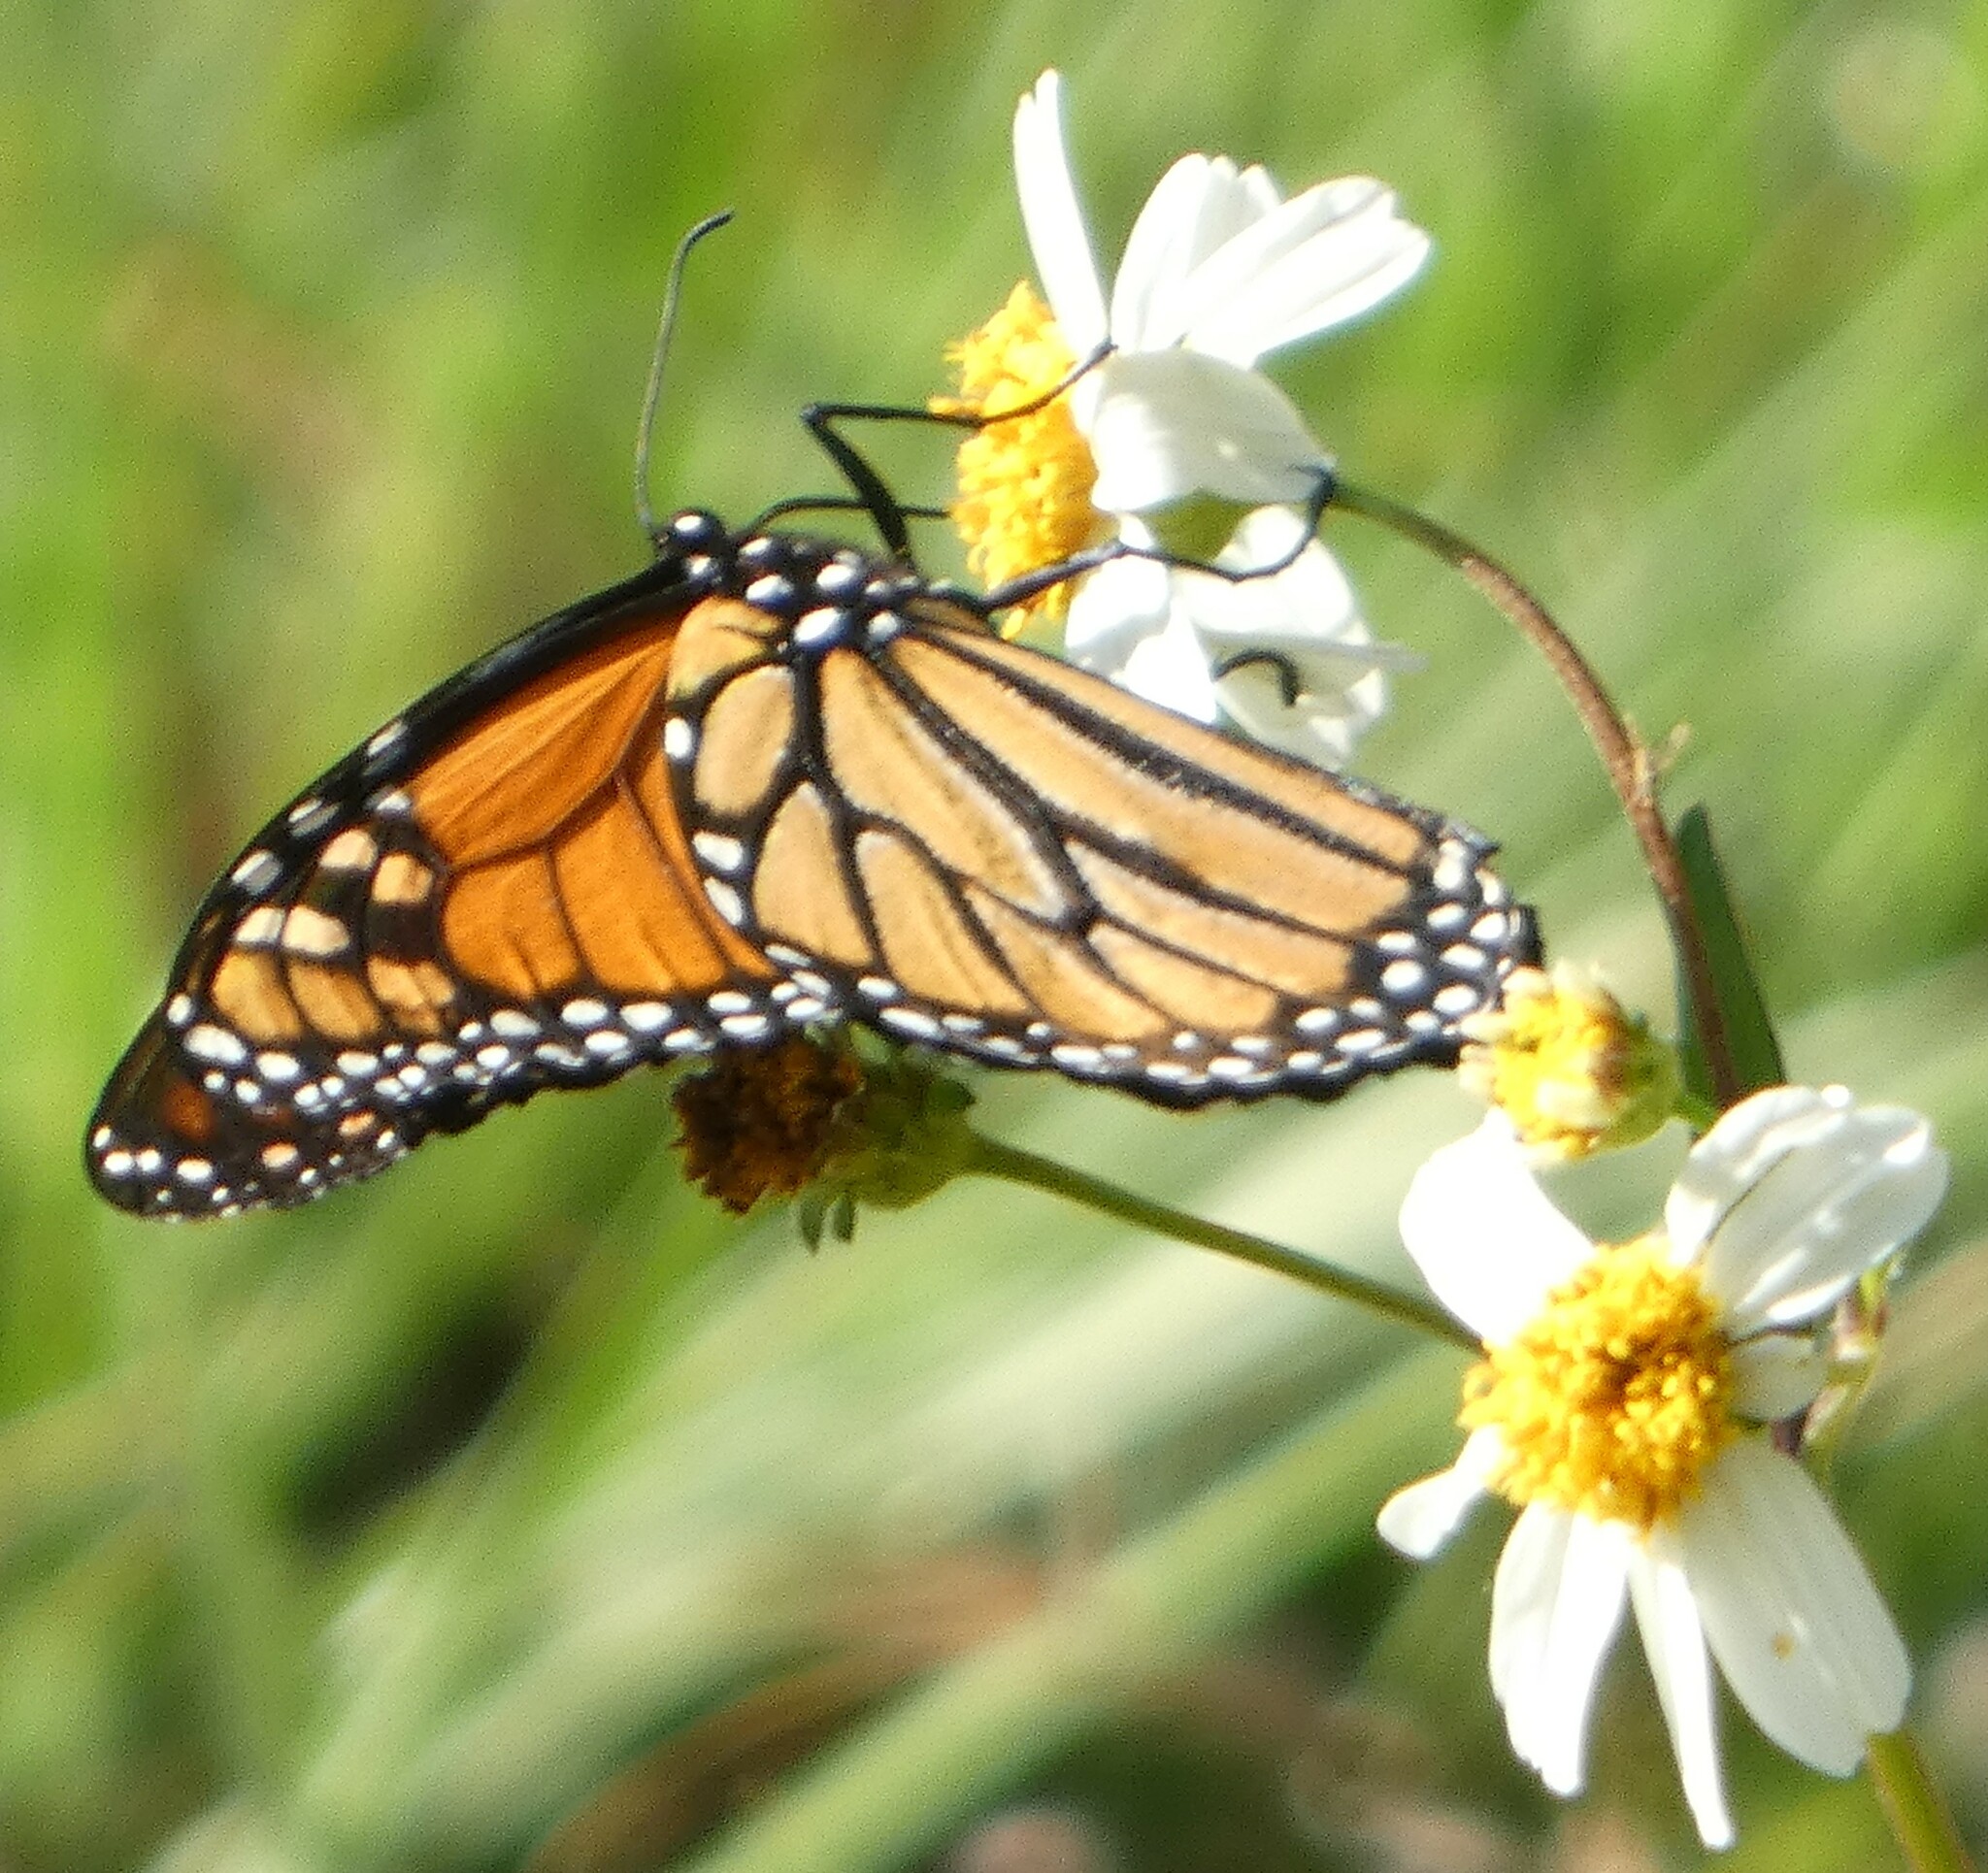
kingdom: Animalia
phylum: Arthropoda
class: Insecta
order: Lepidoptera
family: Nymphalidae
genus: Danaus
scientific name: Danaus plexippus
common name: Monarch
